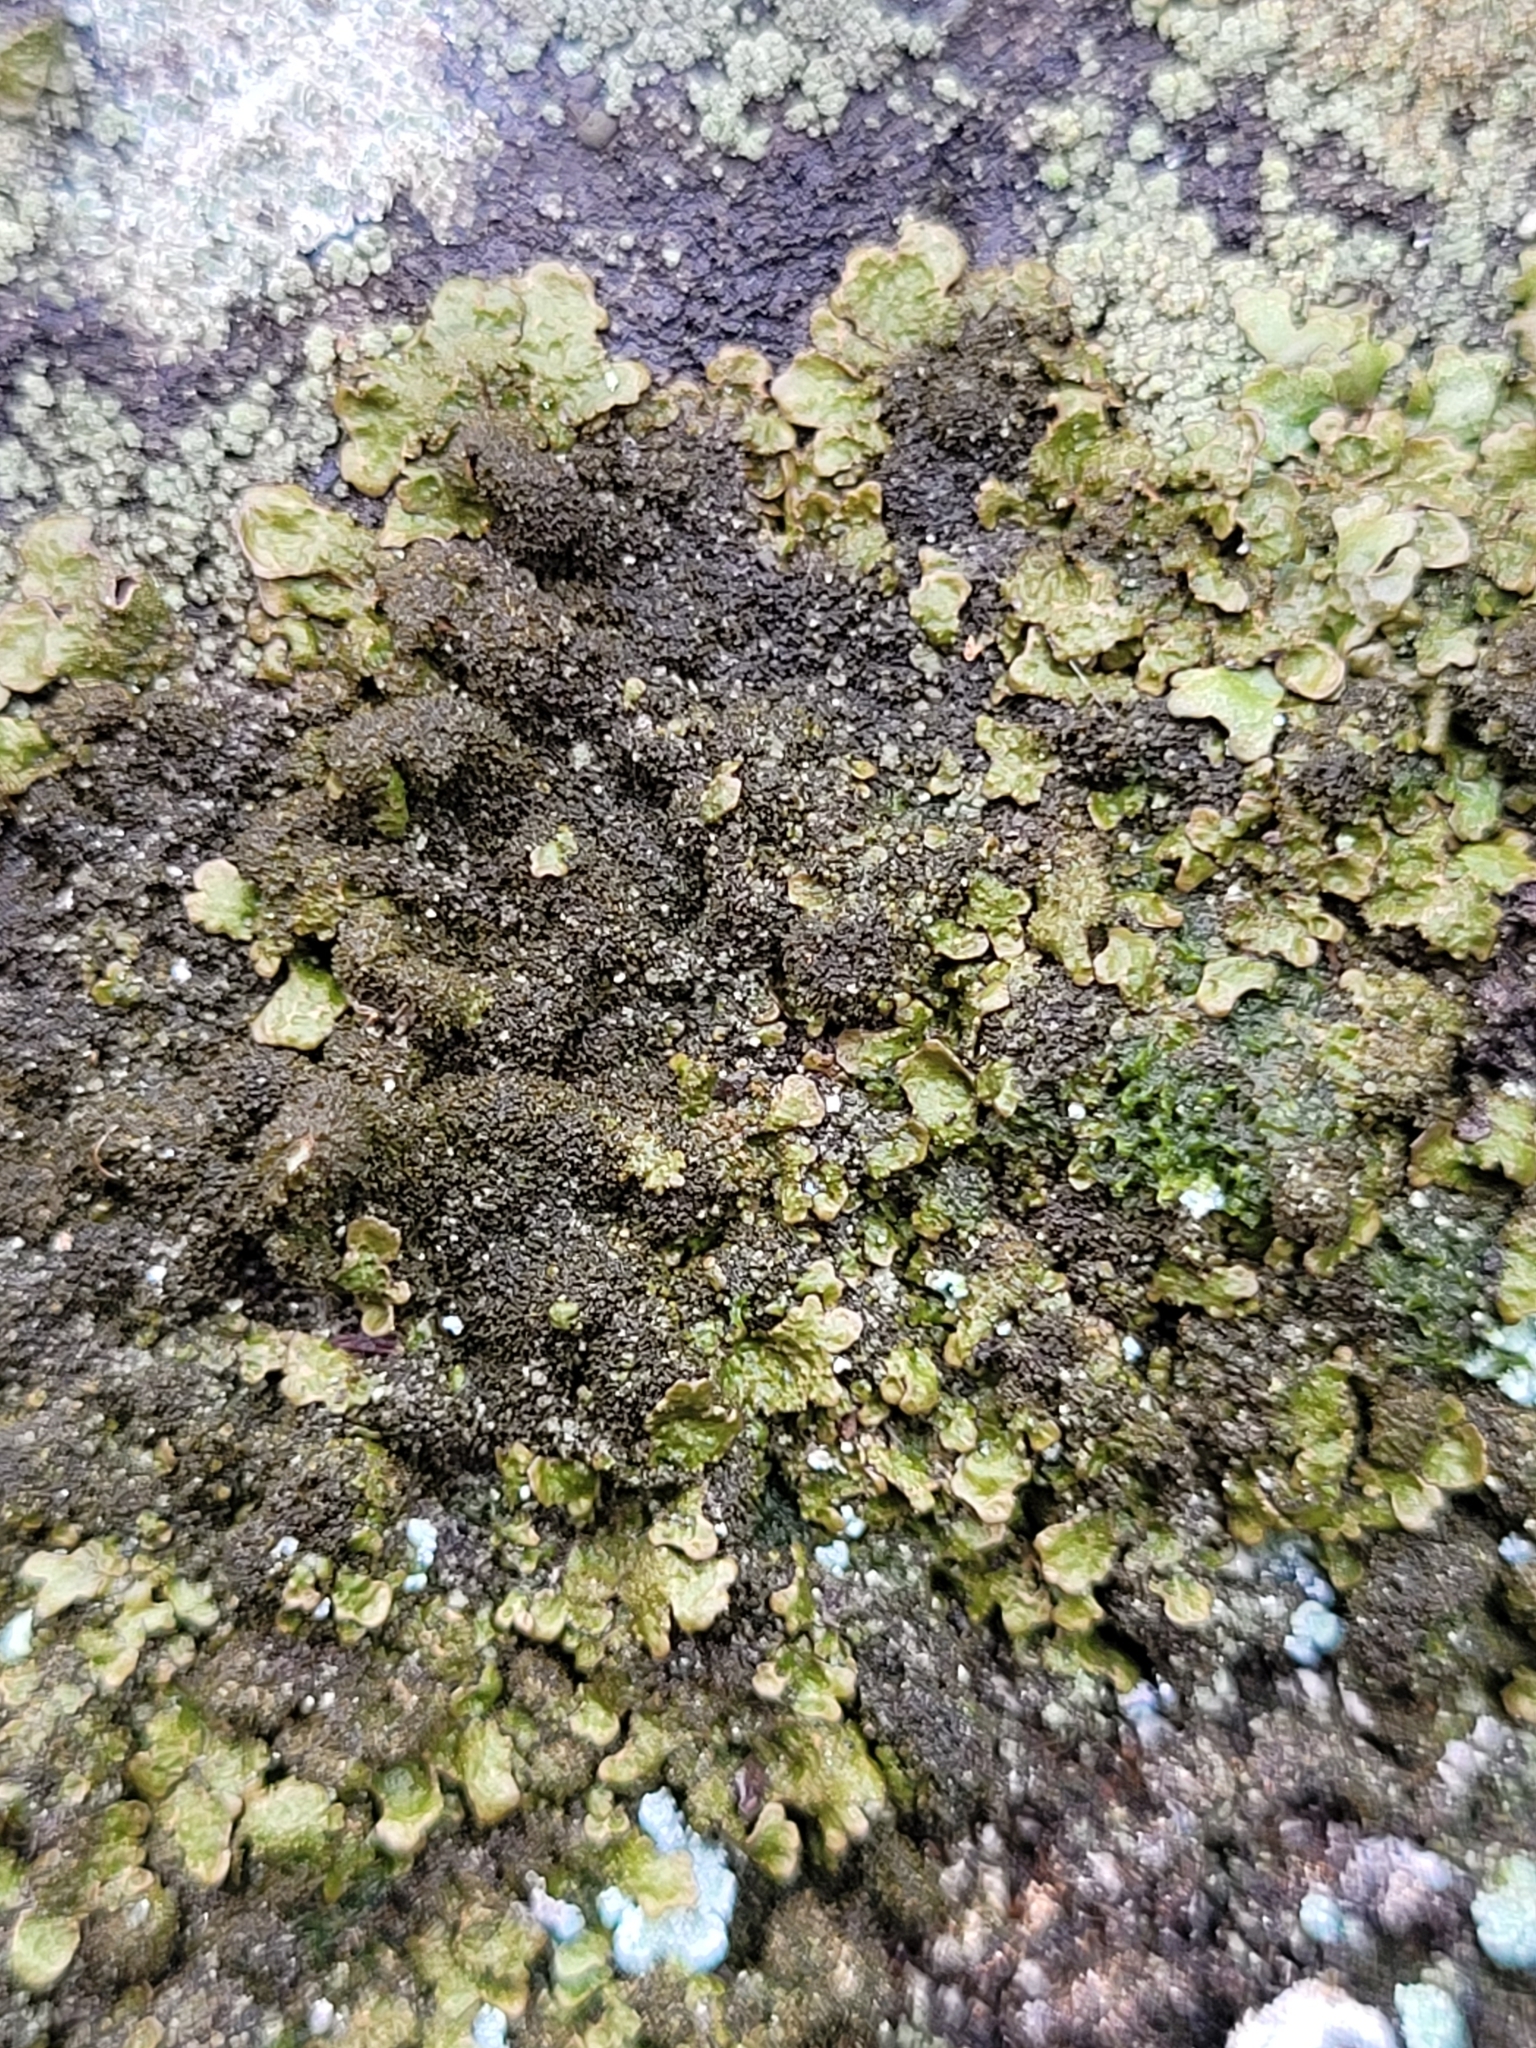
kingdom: Fungi
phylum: Ascomycota
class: Lecanoromycetes
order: Lecanorales
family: Parmeliaceae
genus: Melanelixia
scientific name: Melanelixia fuliginosa
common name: Shiny camouflage lichen
